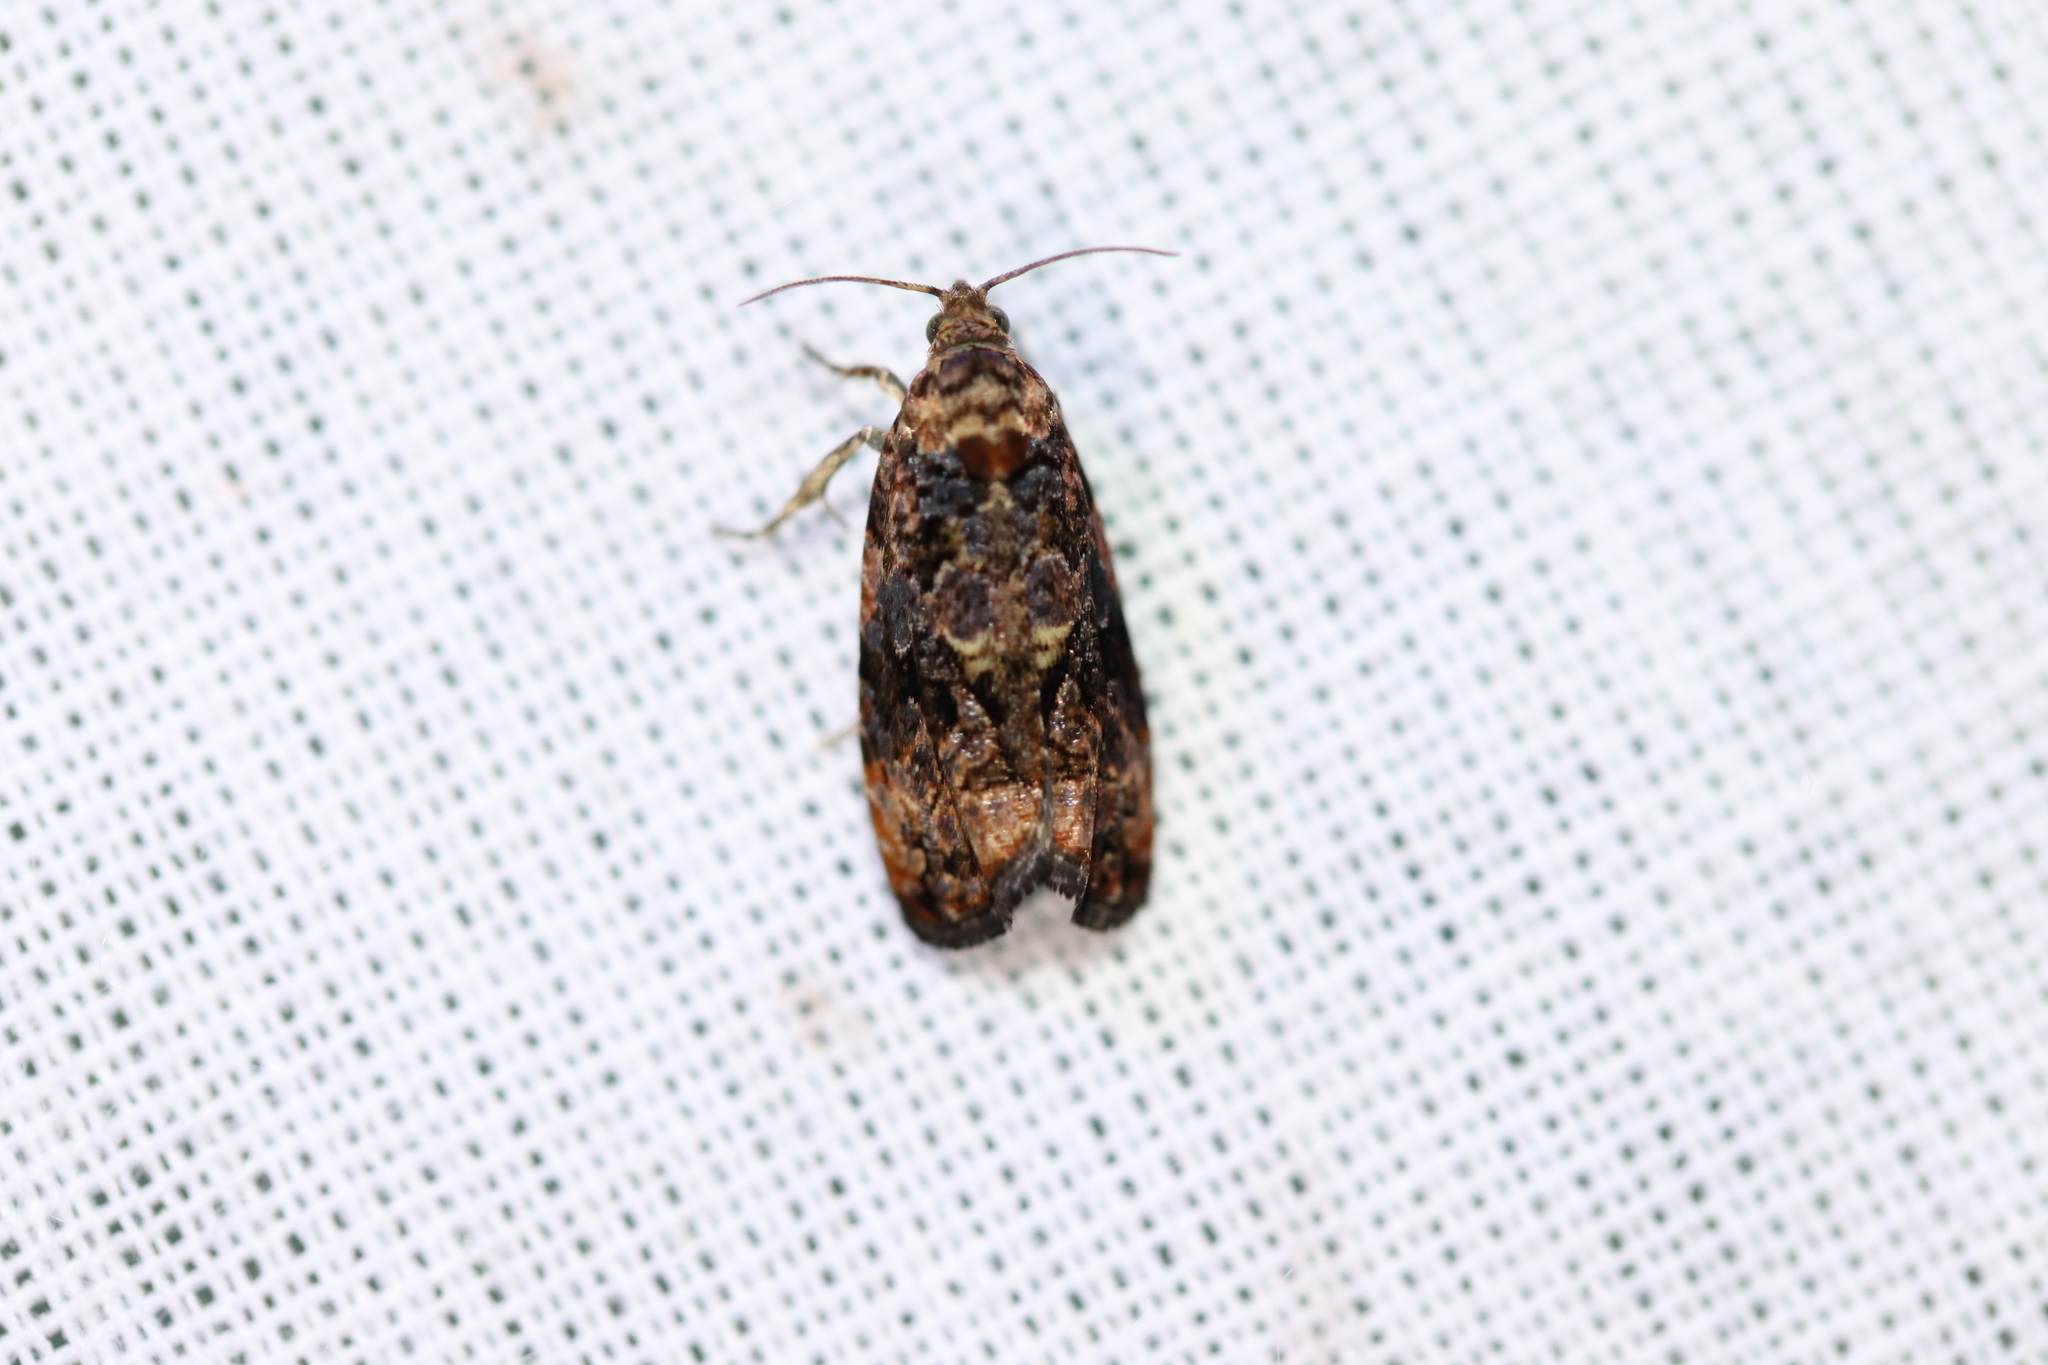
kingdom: Animalia
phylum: Arthropoda
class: Insecta
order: Lepidoptera
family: Tortricidae
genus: Endothenia
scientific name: Endothenia hebesana
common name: Verbena bud moth
